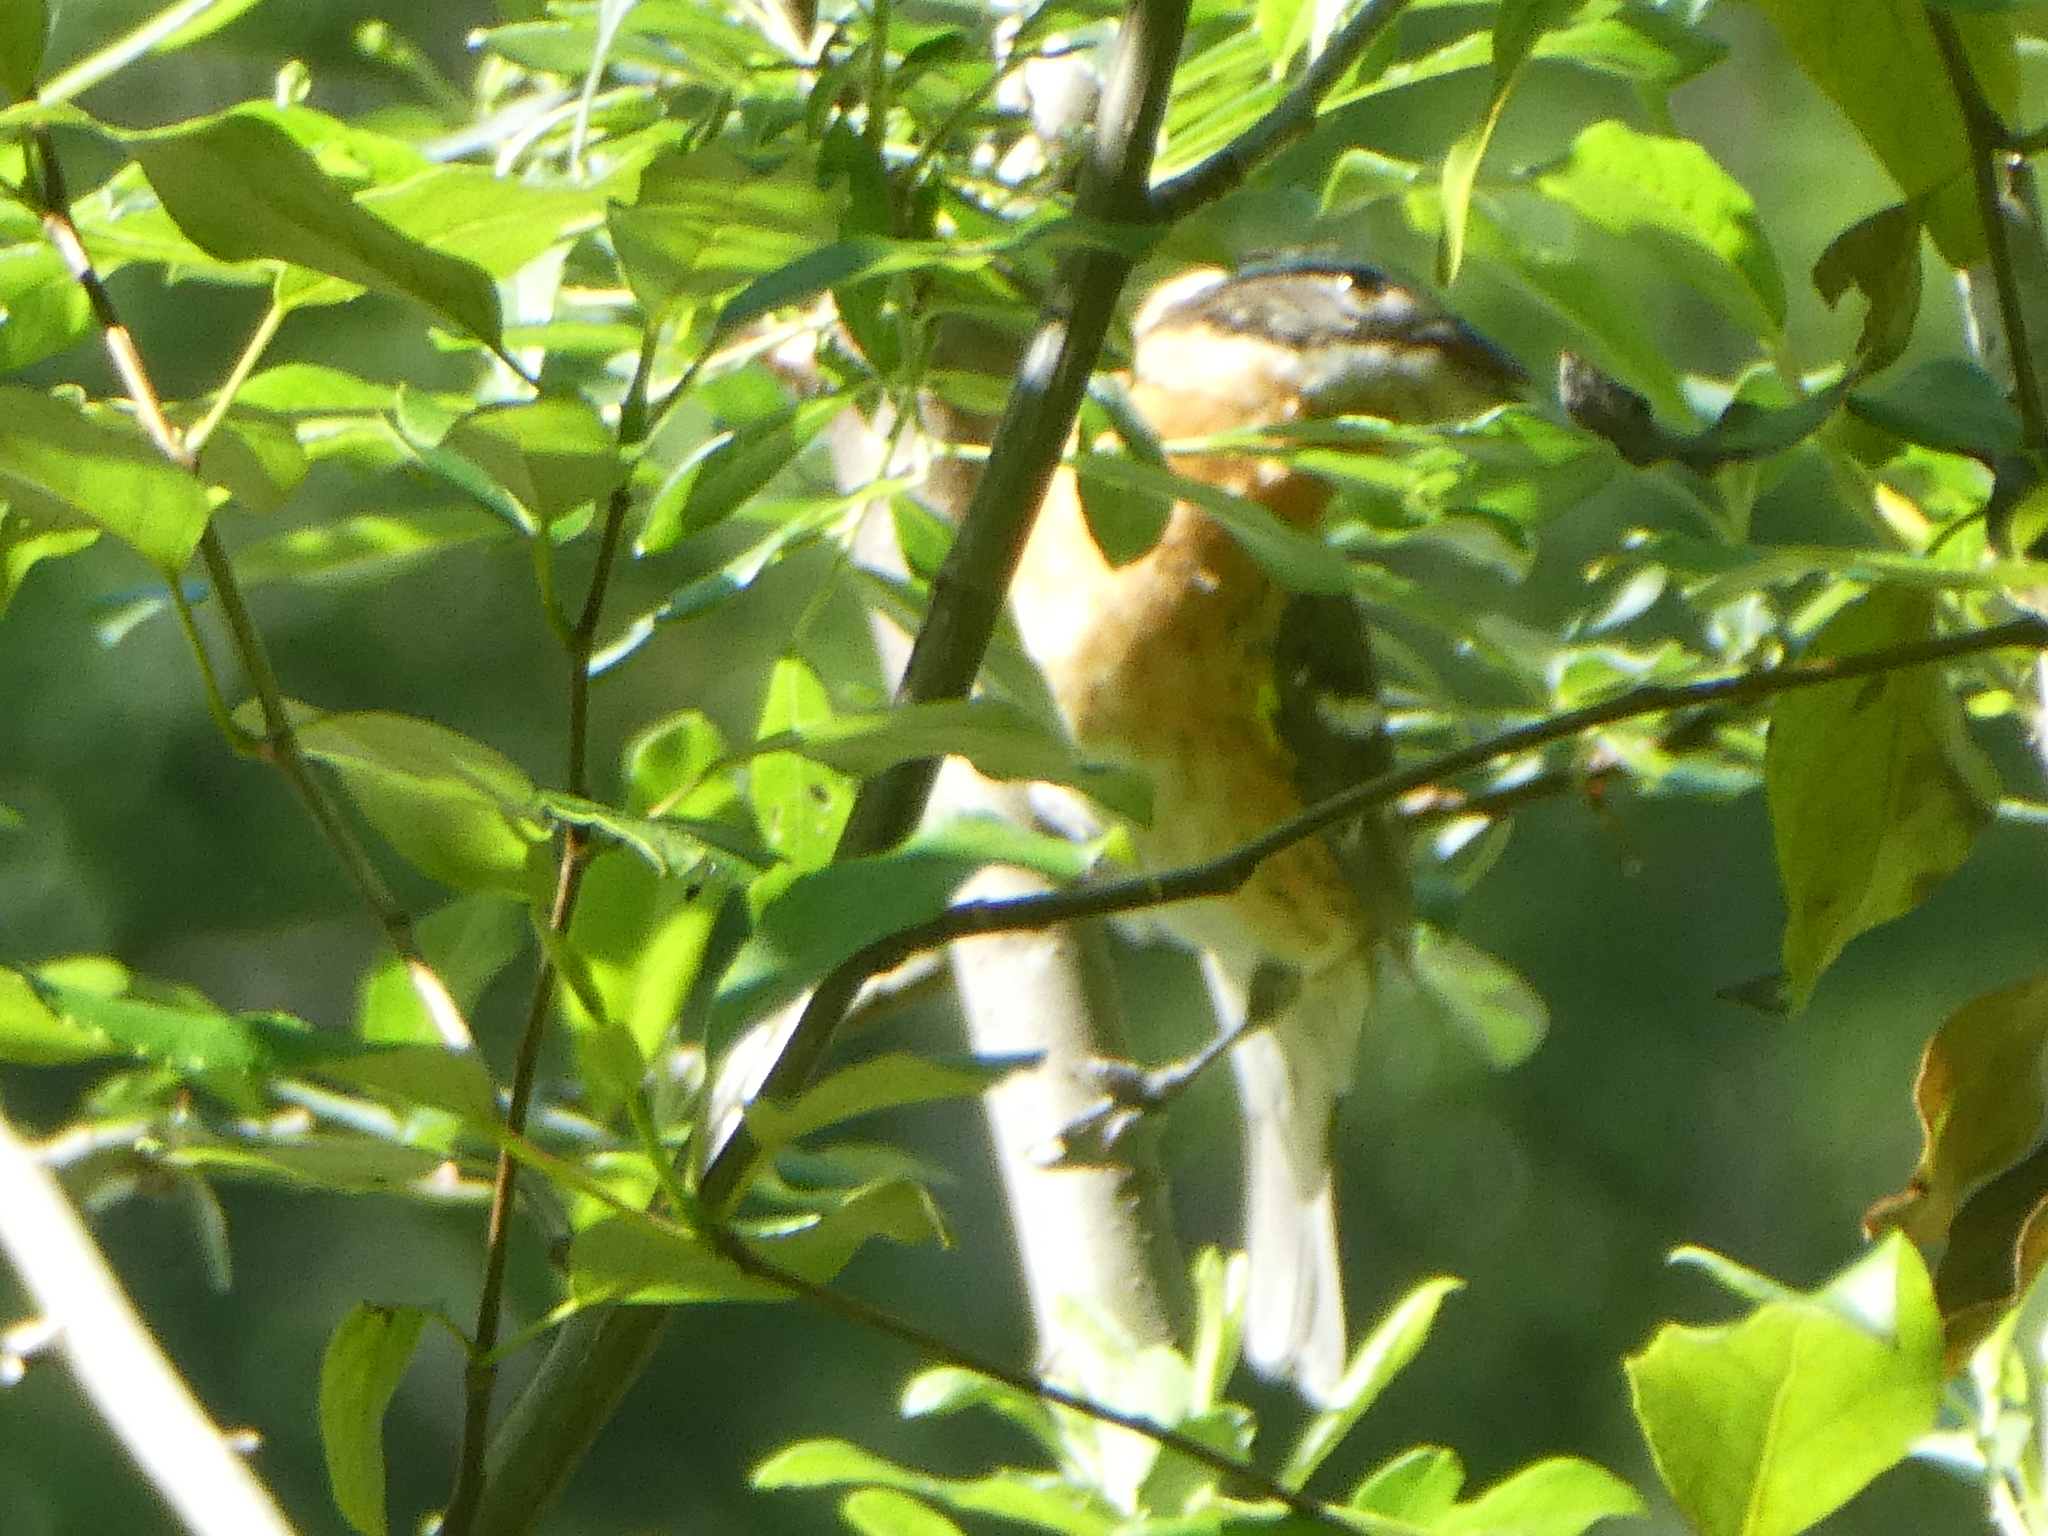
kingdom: Animalia
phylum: Chordata
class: Aves
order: Passeriformes
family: Cardinalidae
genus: Pheucticus
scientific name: Pheucticus melanocephalus
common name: Black-headed grosbeak
